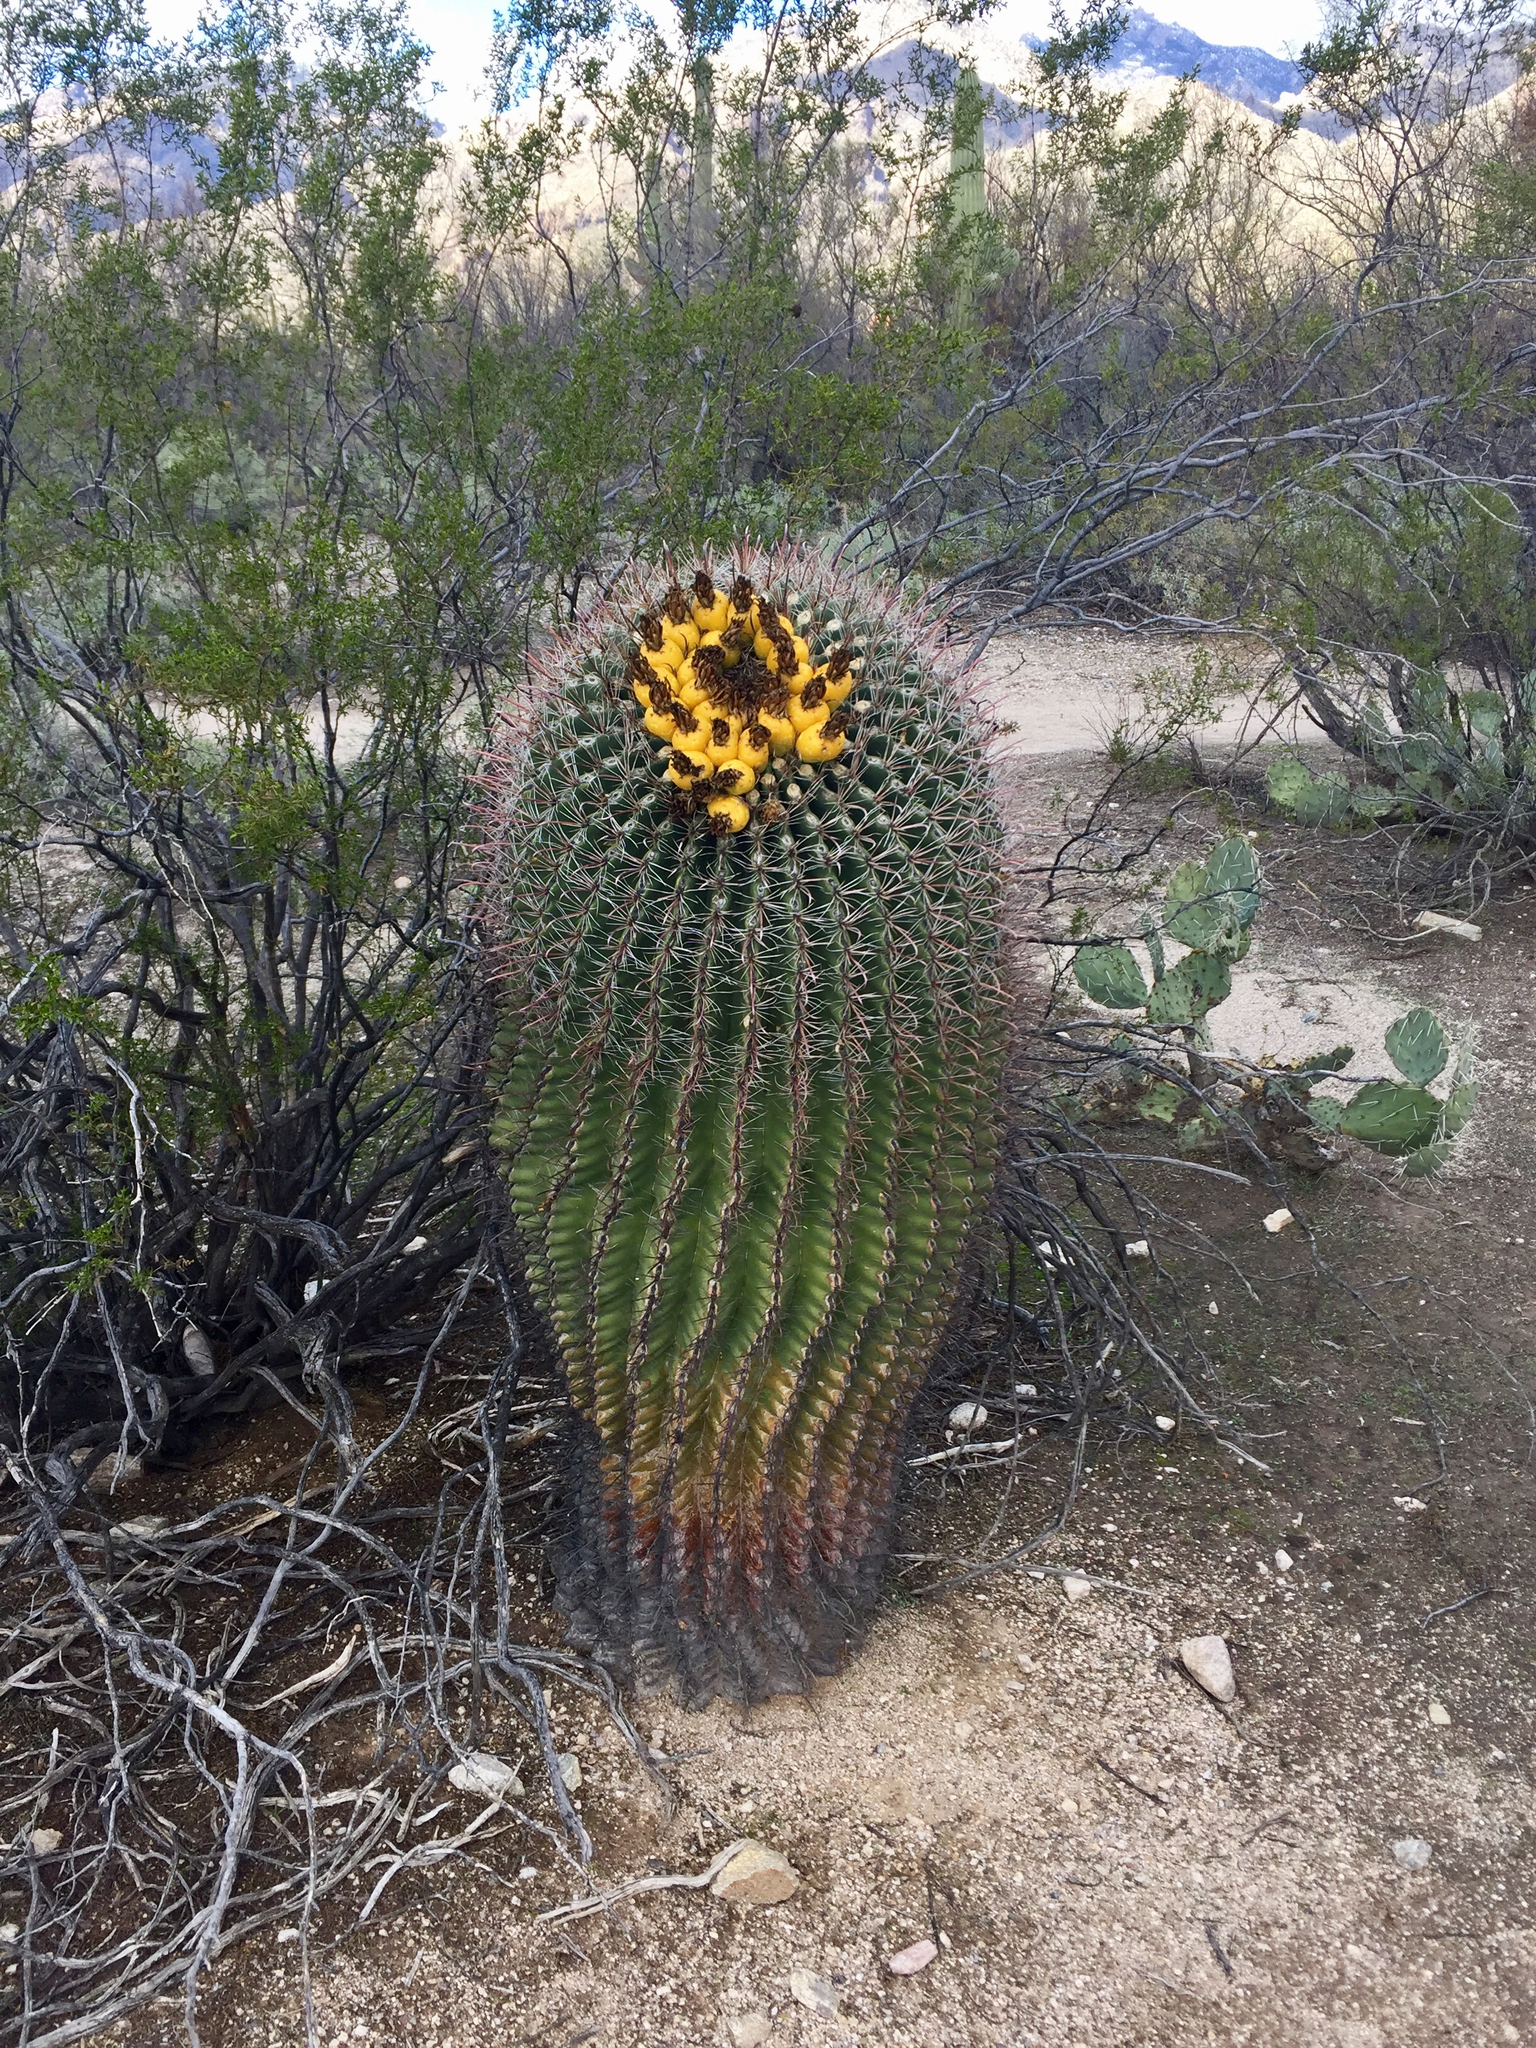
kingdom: Plantae
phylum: Tracheophyta
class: Magnoliopsida
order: Caryophyllales
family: Cactaceae
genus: Ferocactus
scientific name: Ferocactus wislizeni
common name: Candy barrel cactus
